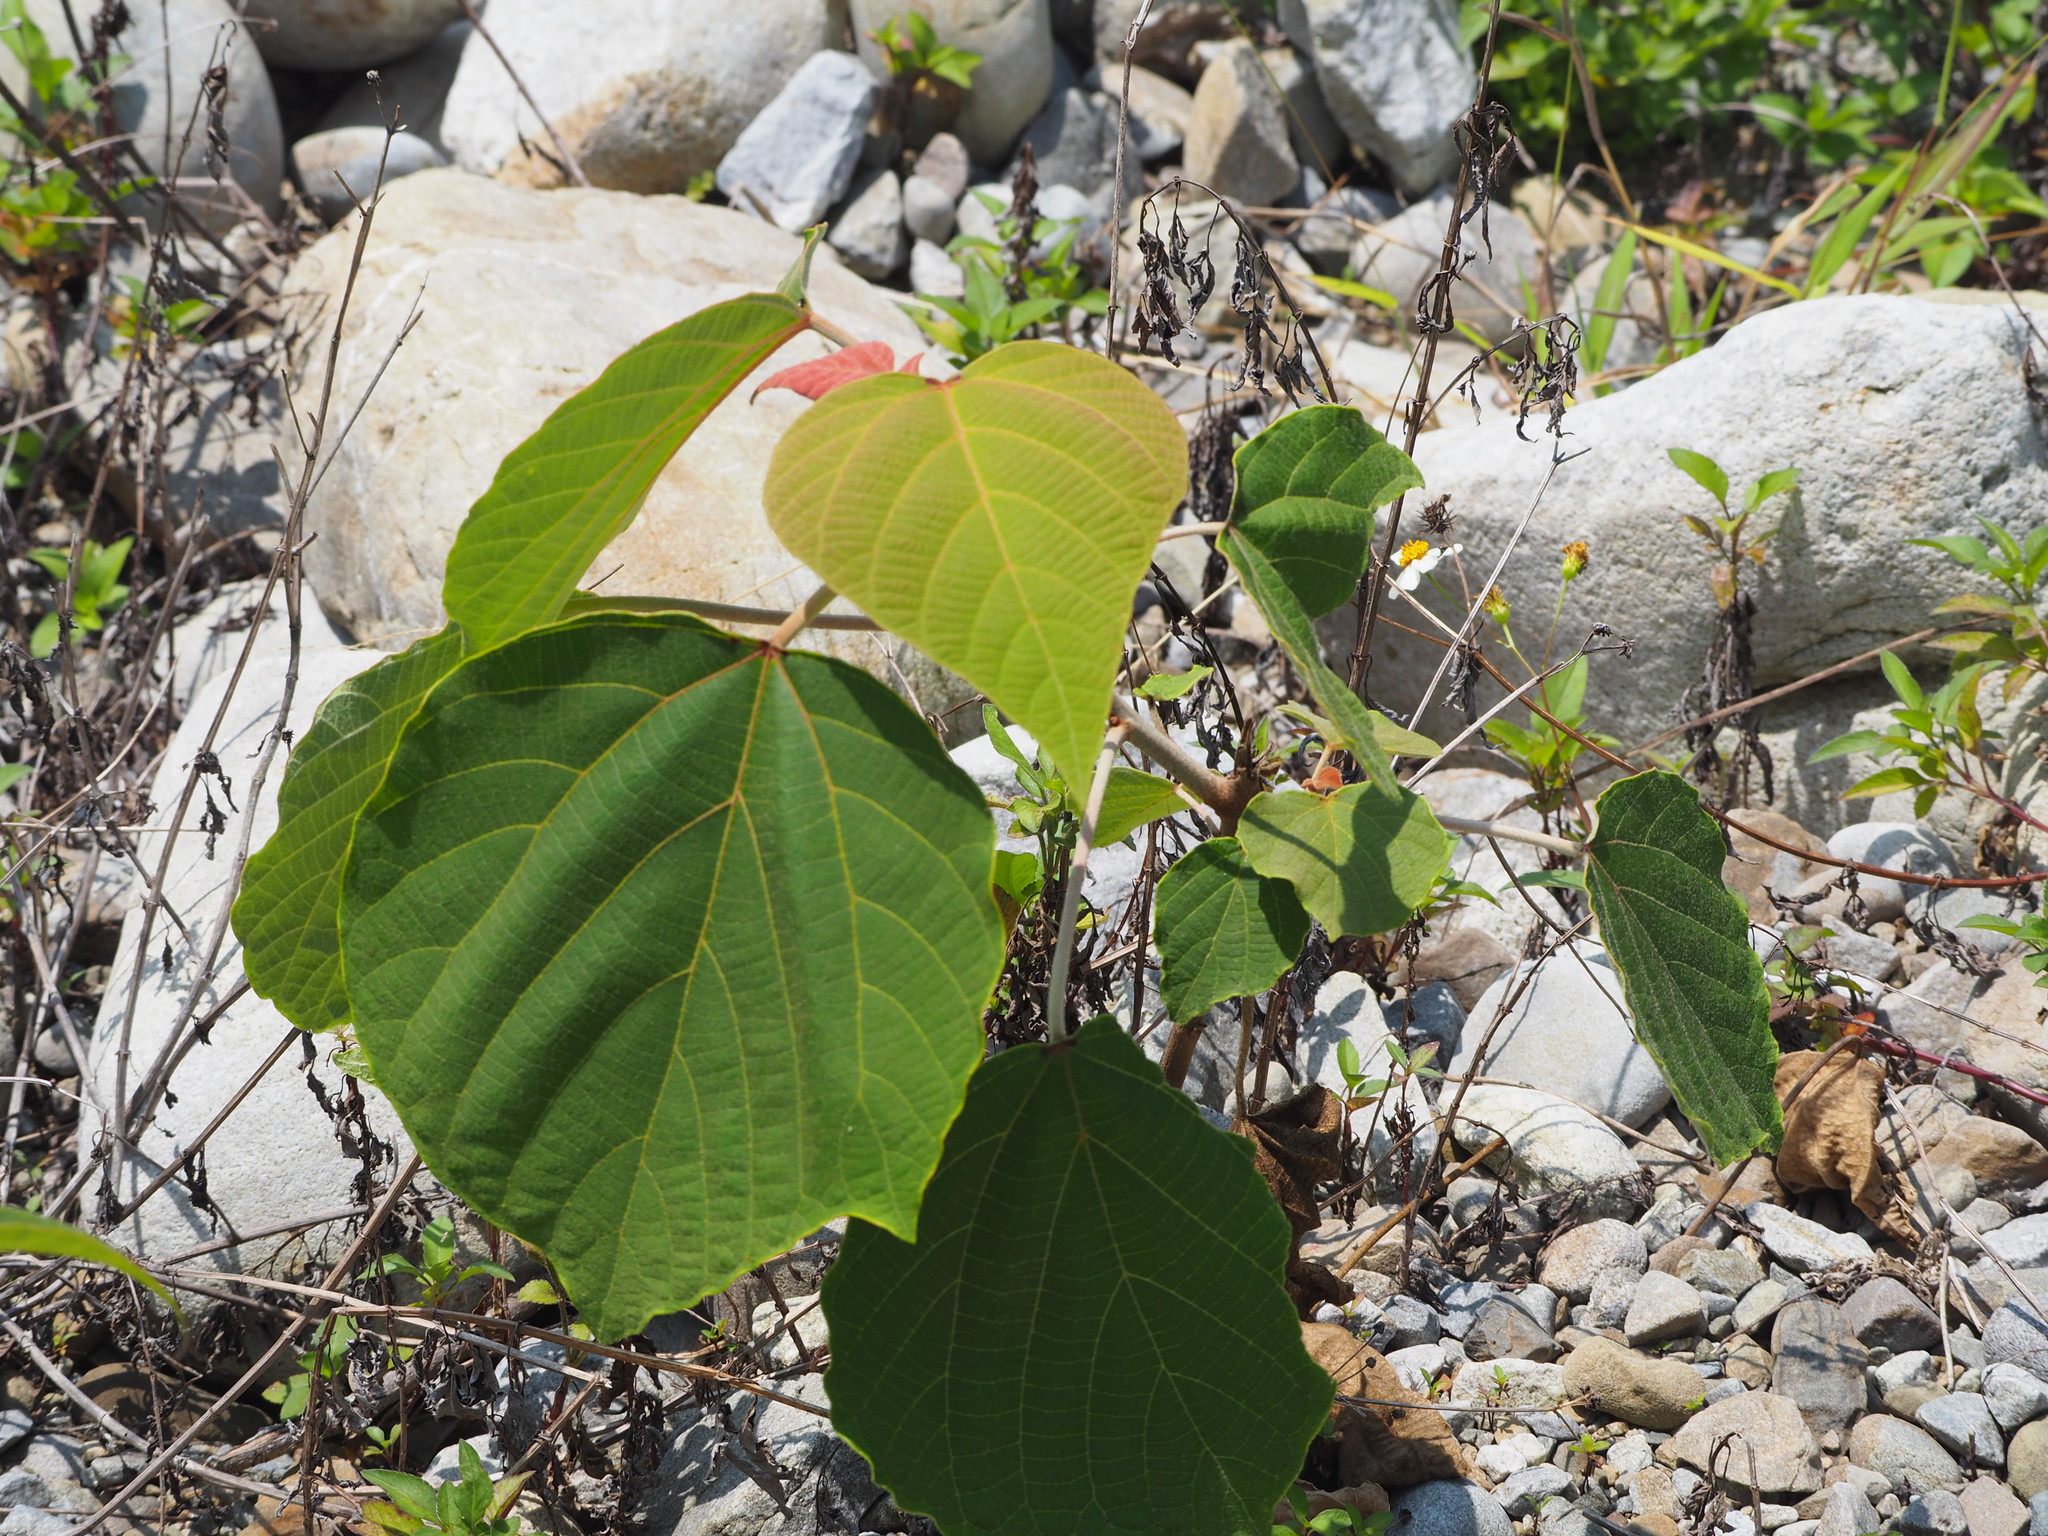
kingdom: Plantae
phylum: Tracheophyta
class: Magnoliopsida
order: Malpighiales
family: Euphorbiaceae
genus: Mallotus
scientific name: Mallotus japonicus
